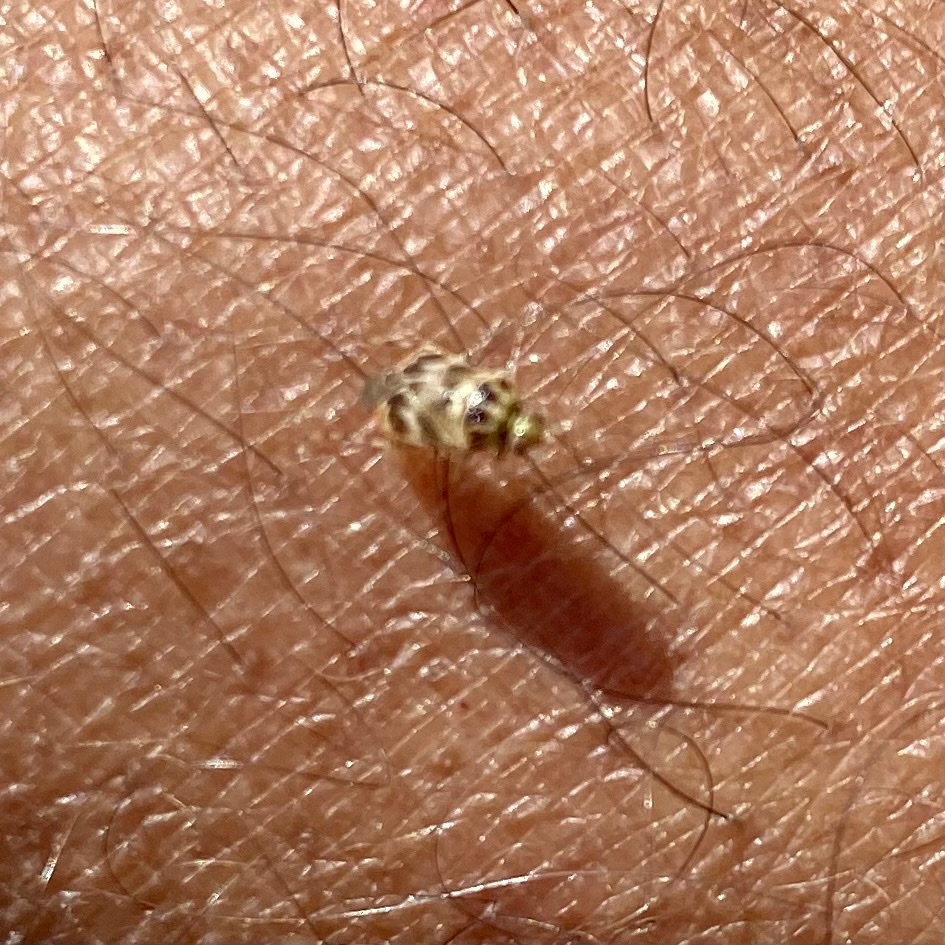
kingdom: Animalia
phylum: Arthropoda
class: Insecta
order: Hemiptera
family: Miridae
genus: Tropidosteptes
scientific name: Tropidosteptes quercicola
